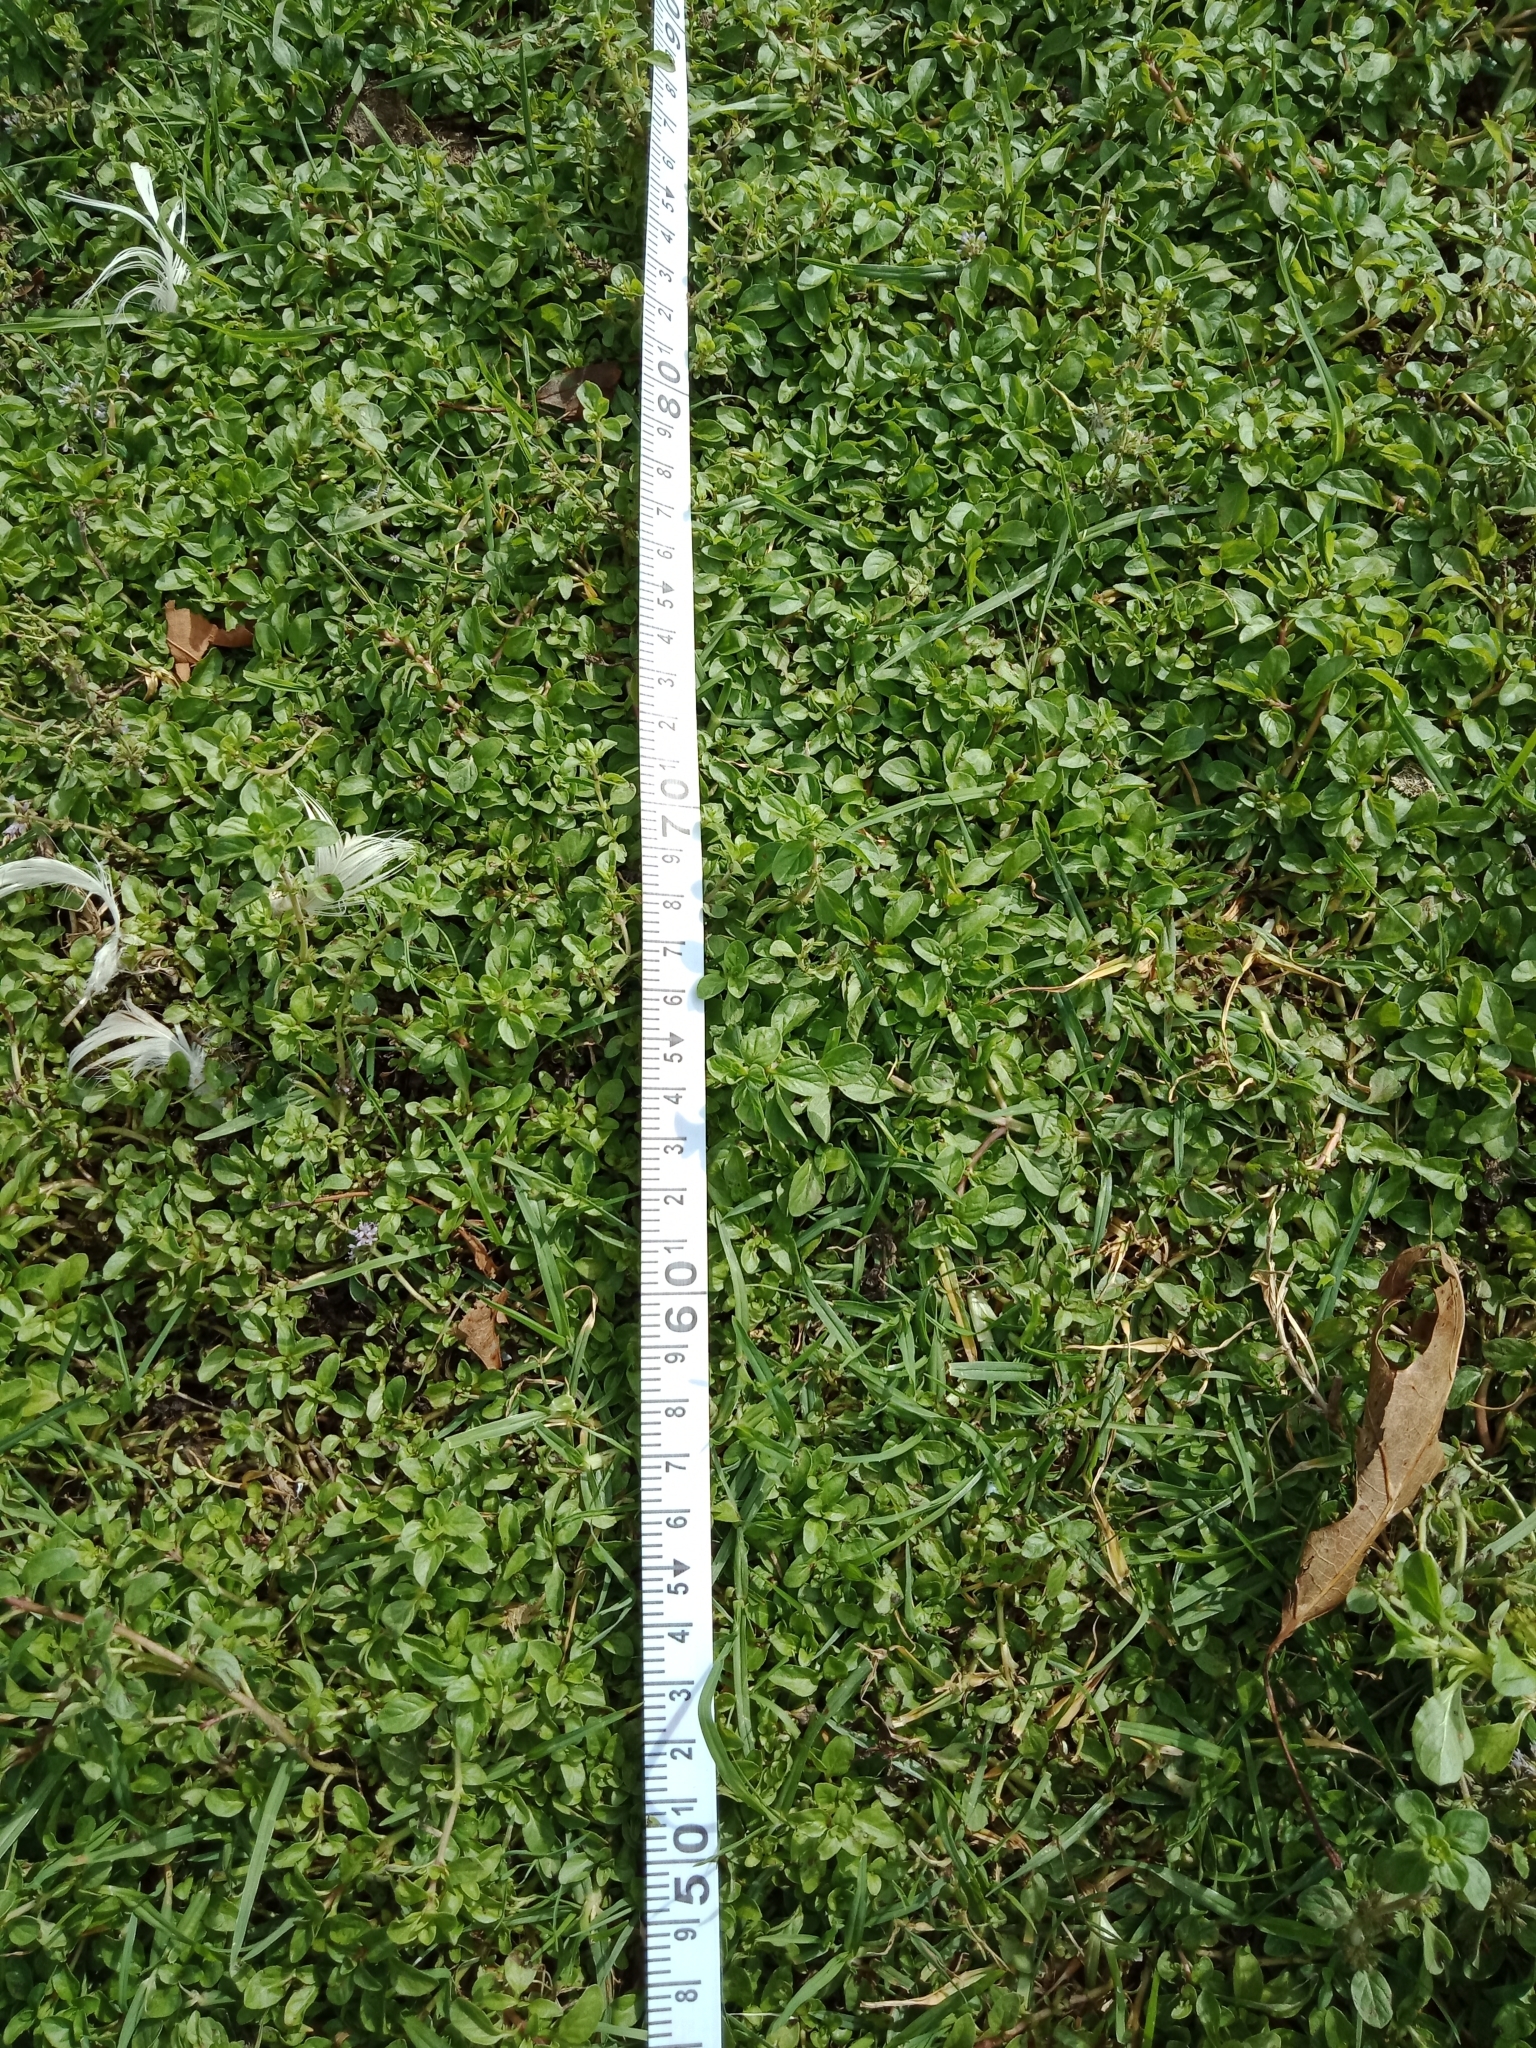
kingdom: Plantae
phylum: Tracheophyta
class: Magnoliopsida
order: Lamiales
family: Lamiaceae
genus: Mentha
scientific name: Mentha pulegium
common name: Pennyroyal
